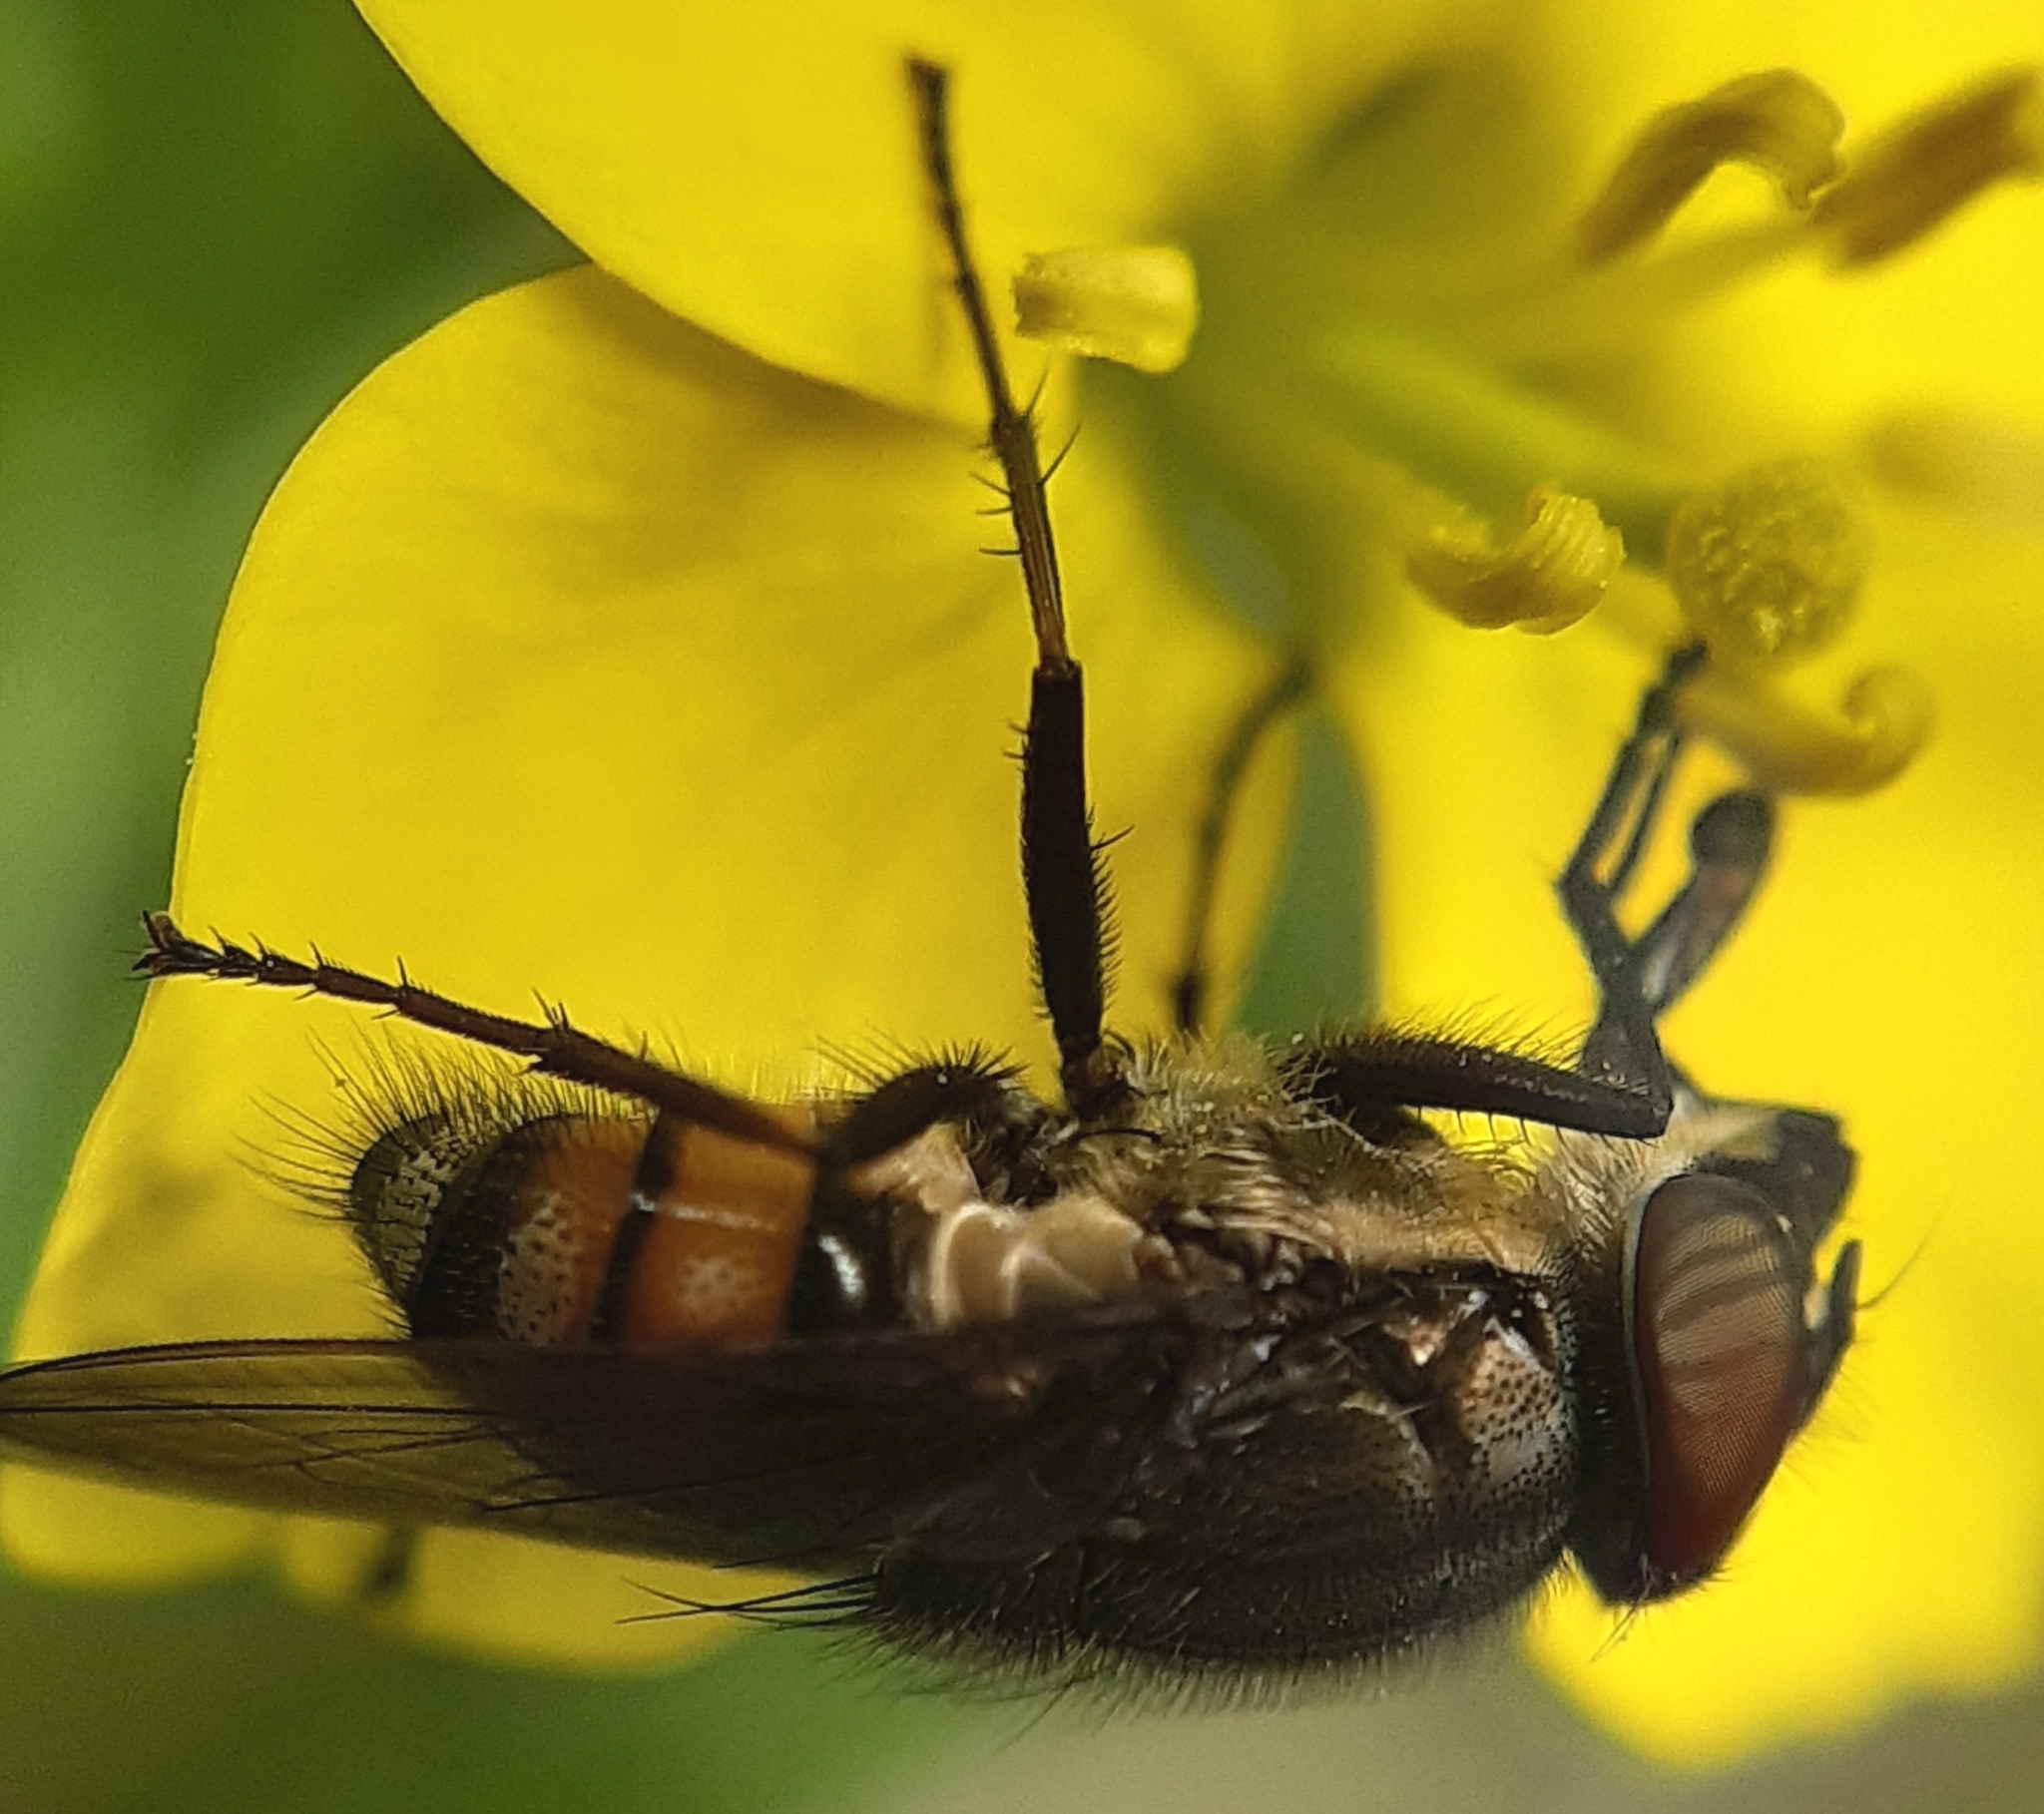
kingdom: Animalia
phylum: Arthropoda
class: Insecta
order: Diptera
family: Calliphoridae
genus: Stomorhina
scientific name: Stomorhina lunata
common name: Locust blowfly
